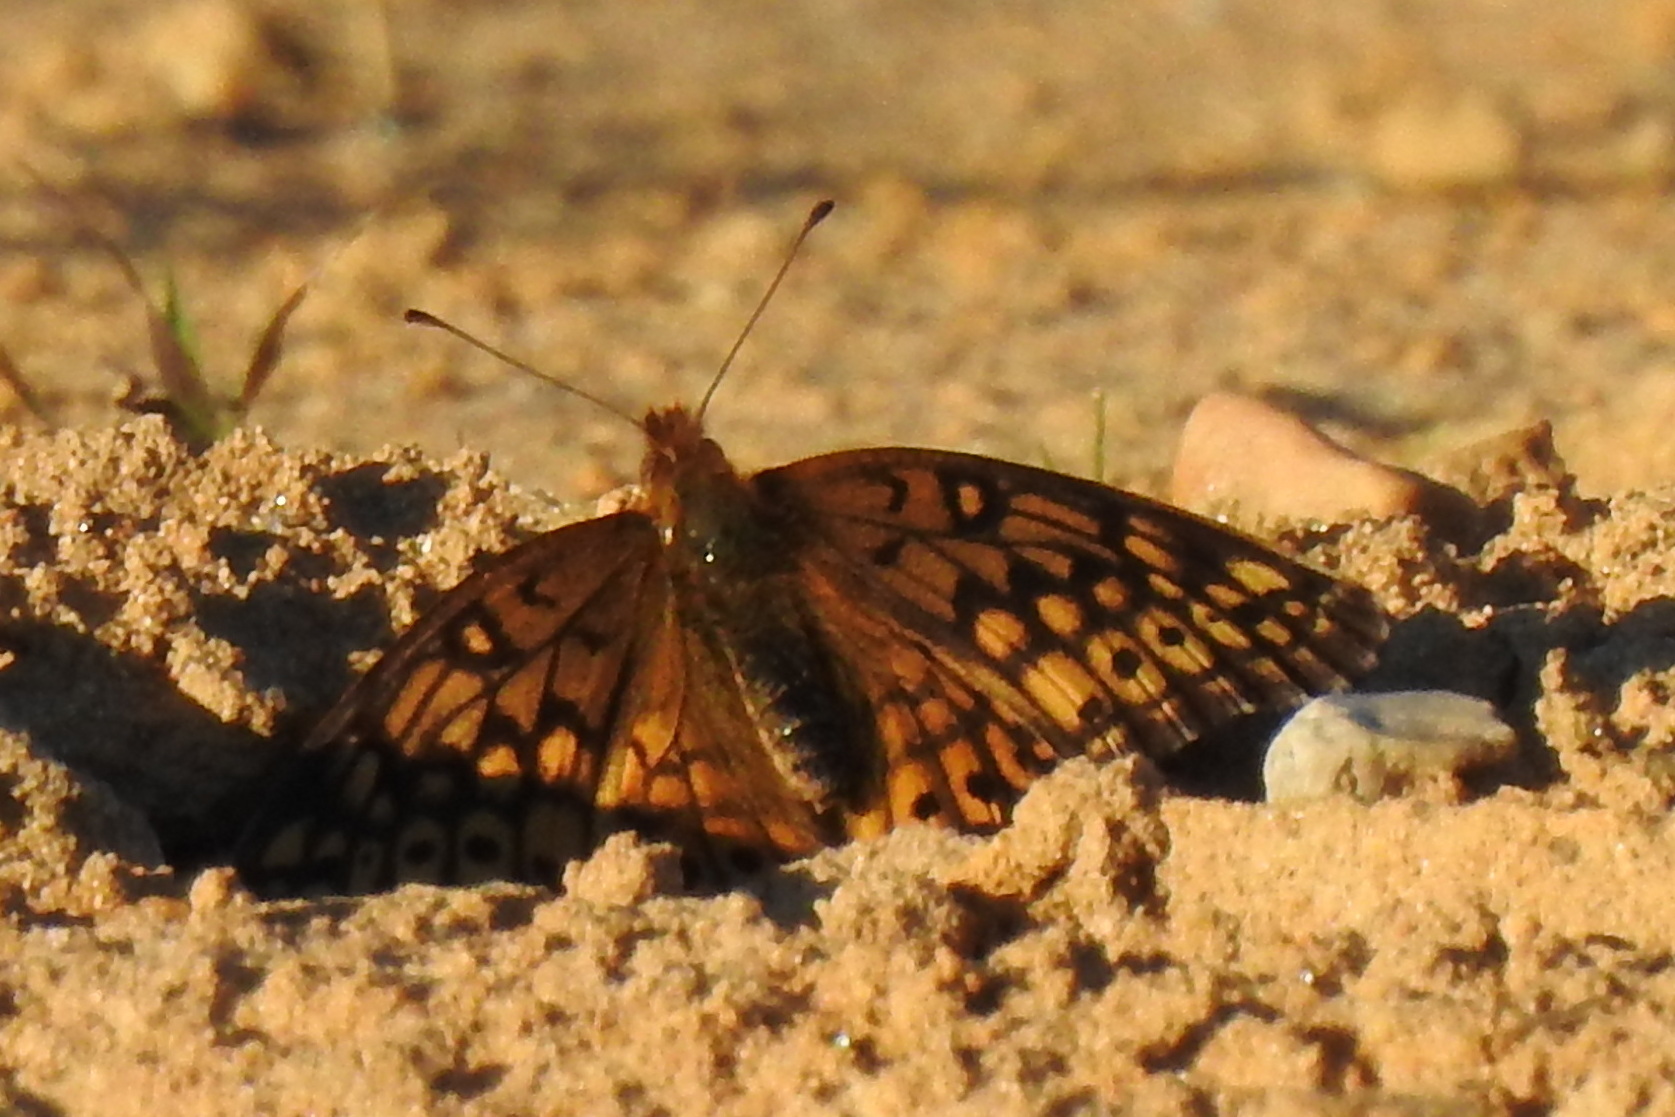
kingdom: Animalia
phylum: Arthropoda
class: Insecta
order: Lepidoptera
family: Nymphalidae
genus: Euptoieta
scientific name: Euptoieta claudia
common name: Variegated fritillary
